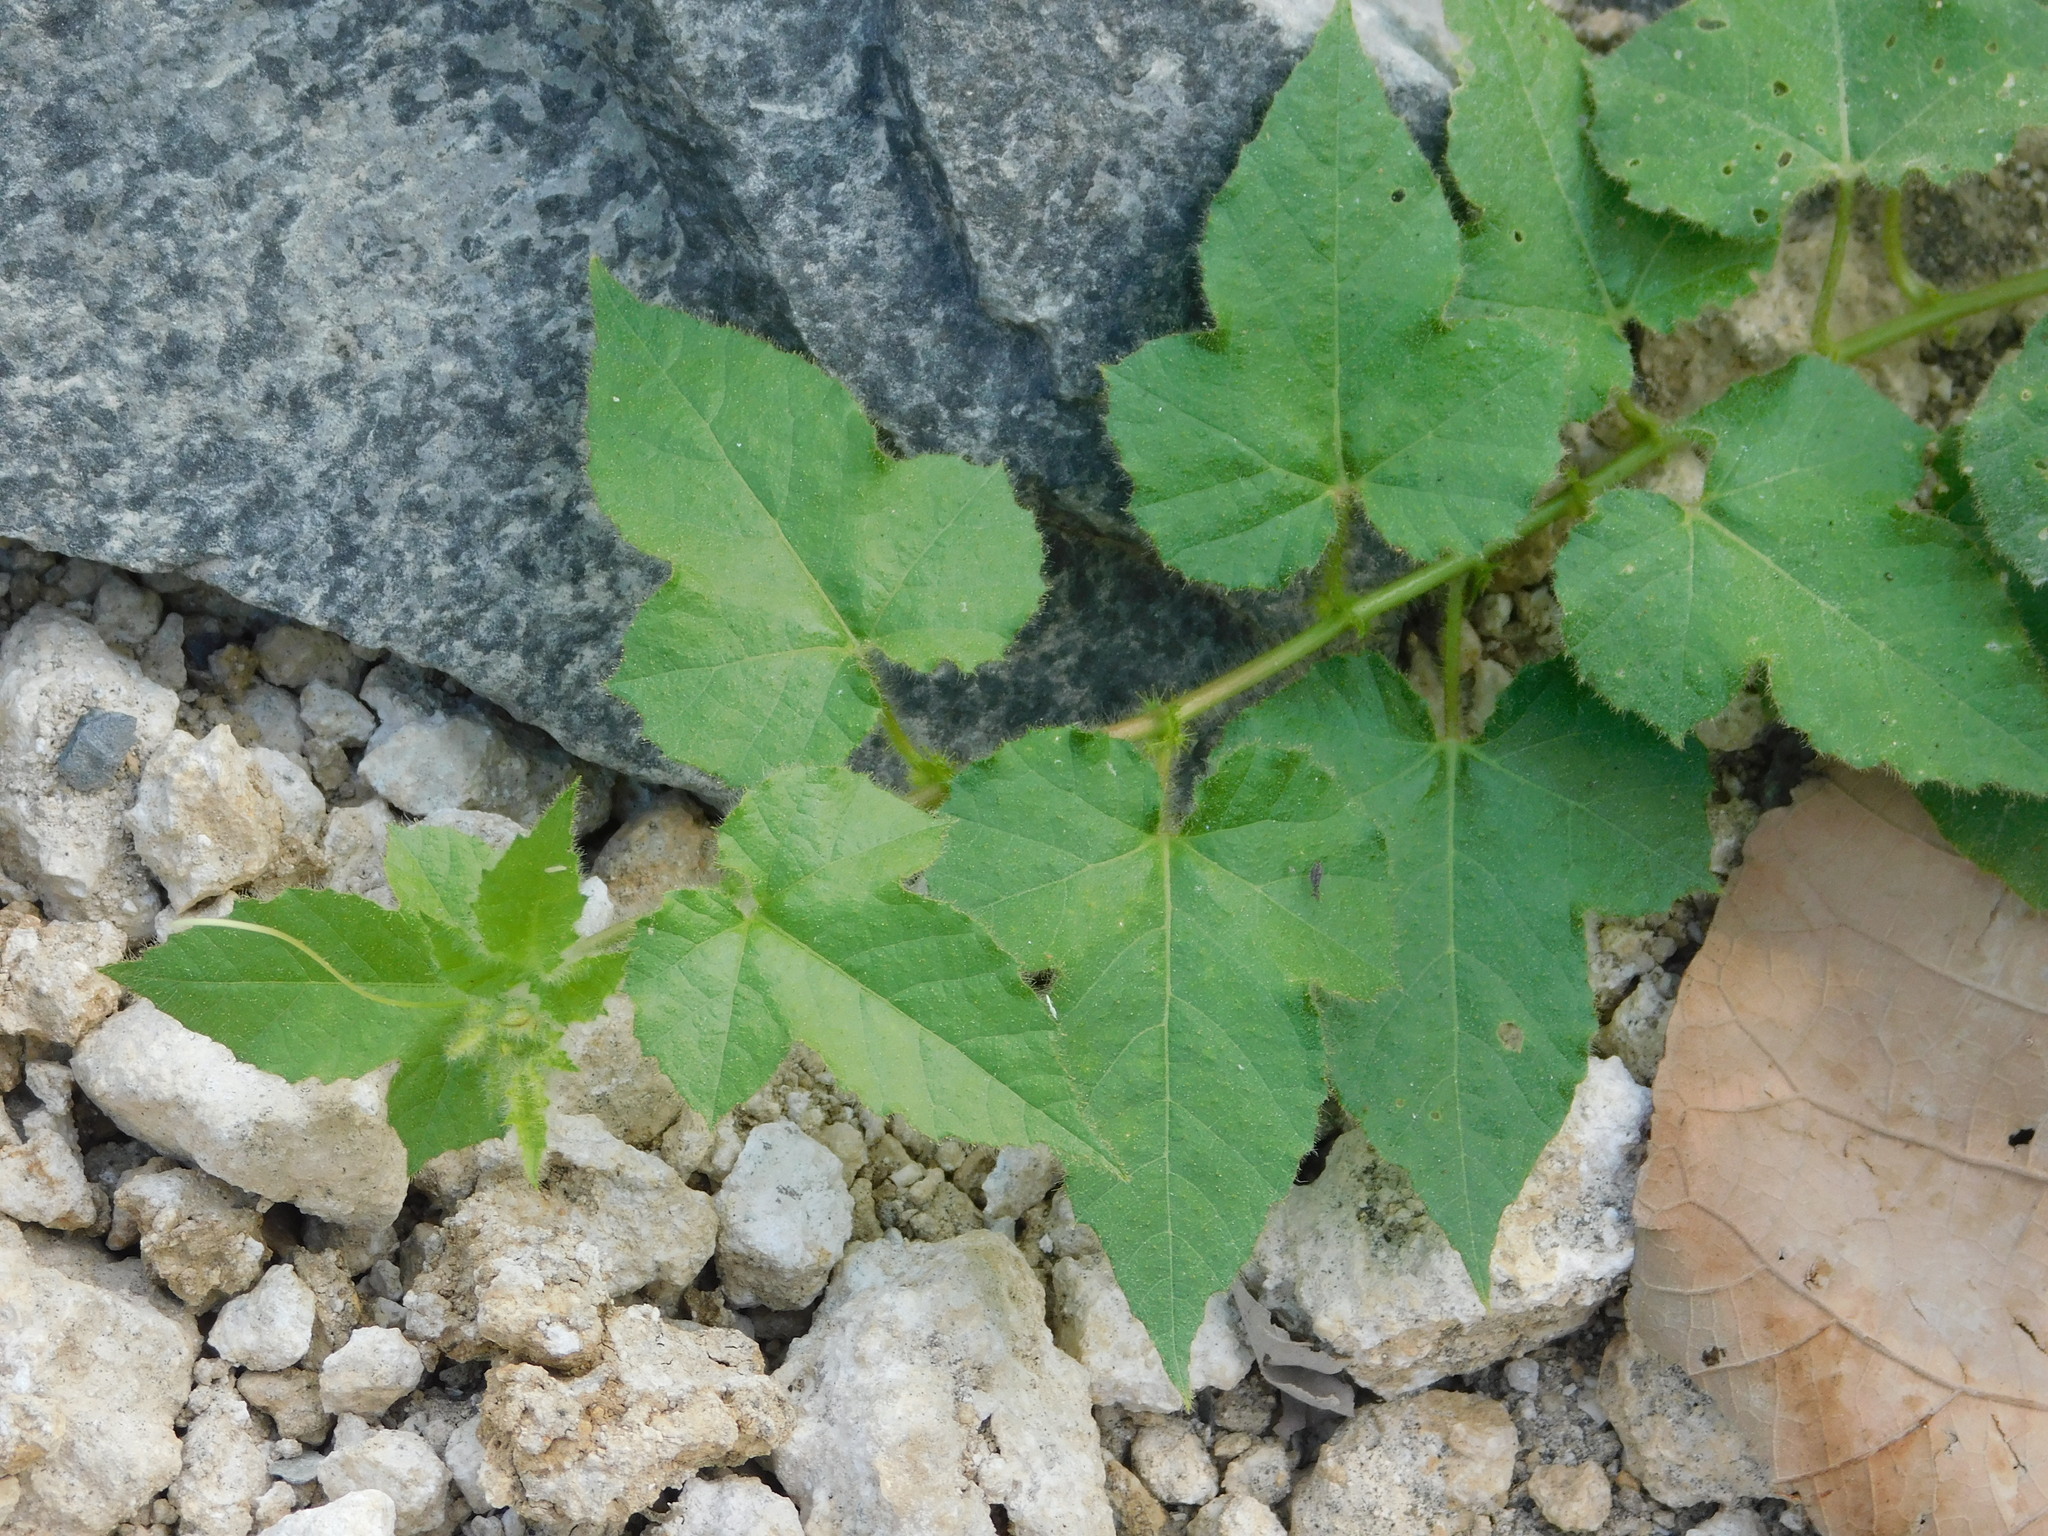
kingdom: Plantae
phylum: Tracheophyta
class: Magnoliopsida
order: Malpighiales
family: Passifloraceae
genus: Passiflora
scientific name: Passiflora vesicaria
